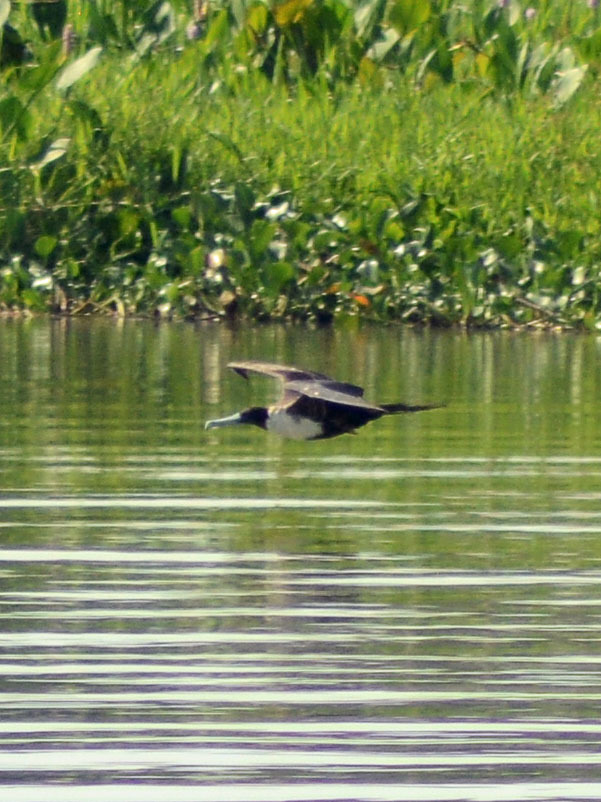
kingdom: Animalia
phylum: Chordata
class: Aves
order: Suliformes
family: Fregatidae
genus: Fregata
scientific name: Fregata magnificens
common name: Magnificent frigatebird
